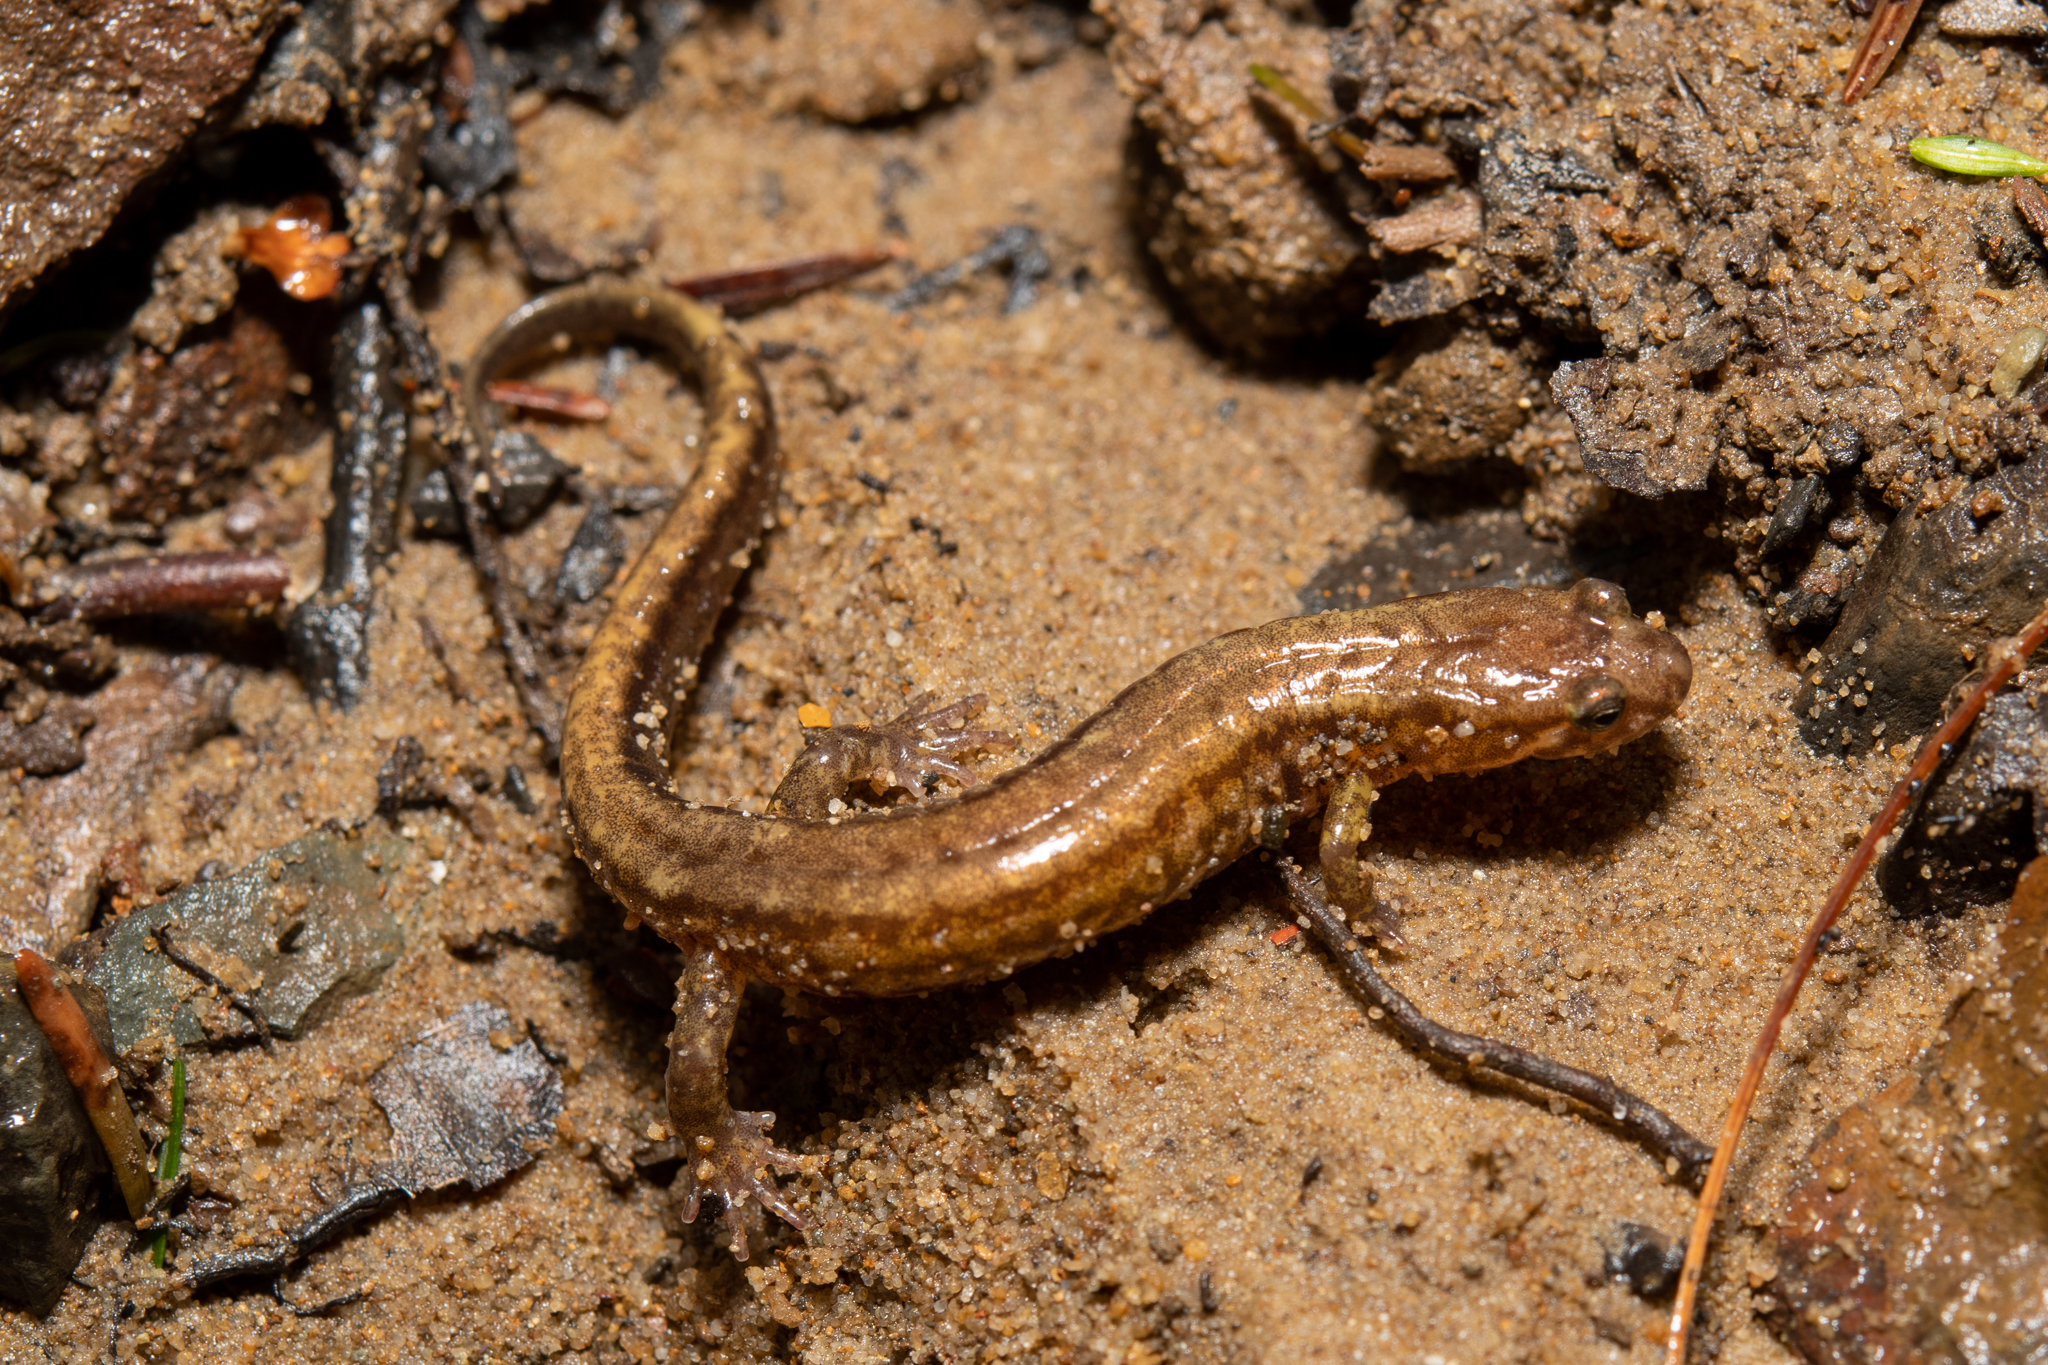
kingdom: Animalia
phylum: Chordata
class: Amphibia
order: Caudata
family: Plethodontidae
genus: Desmognathus
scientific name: Desmognathus ochrophaeus
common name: Allegheny mountain dusky salamander
